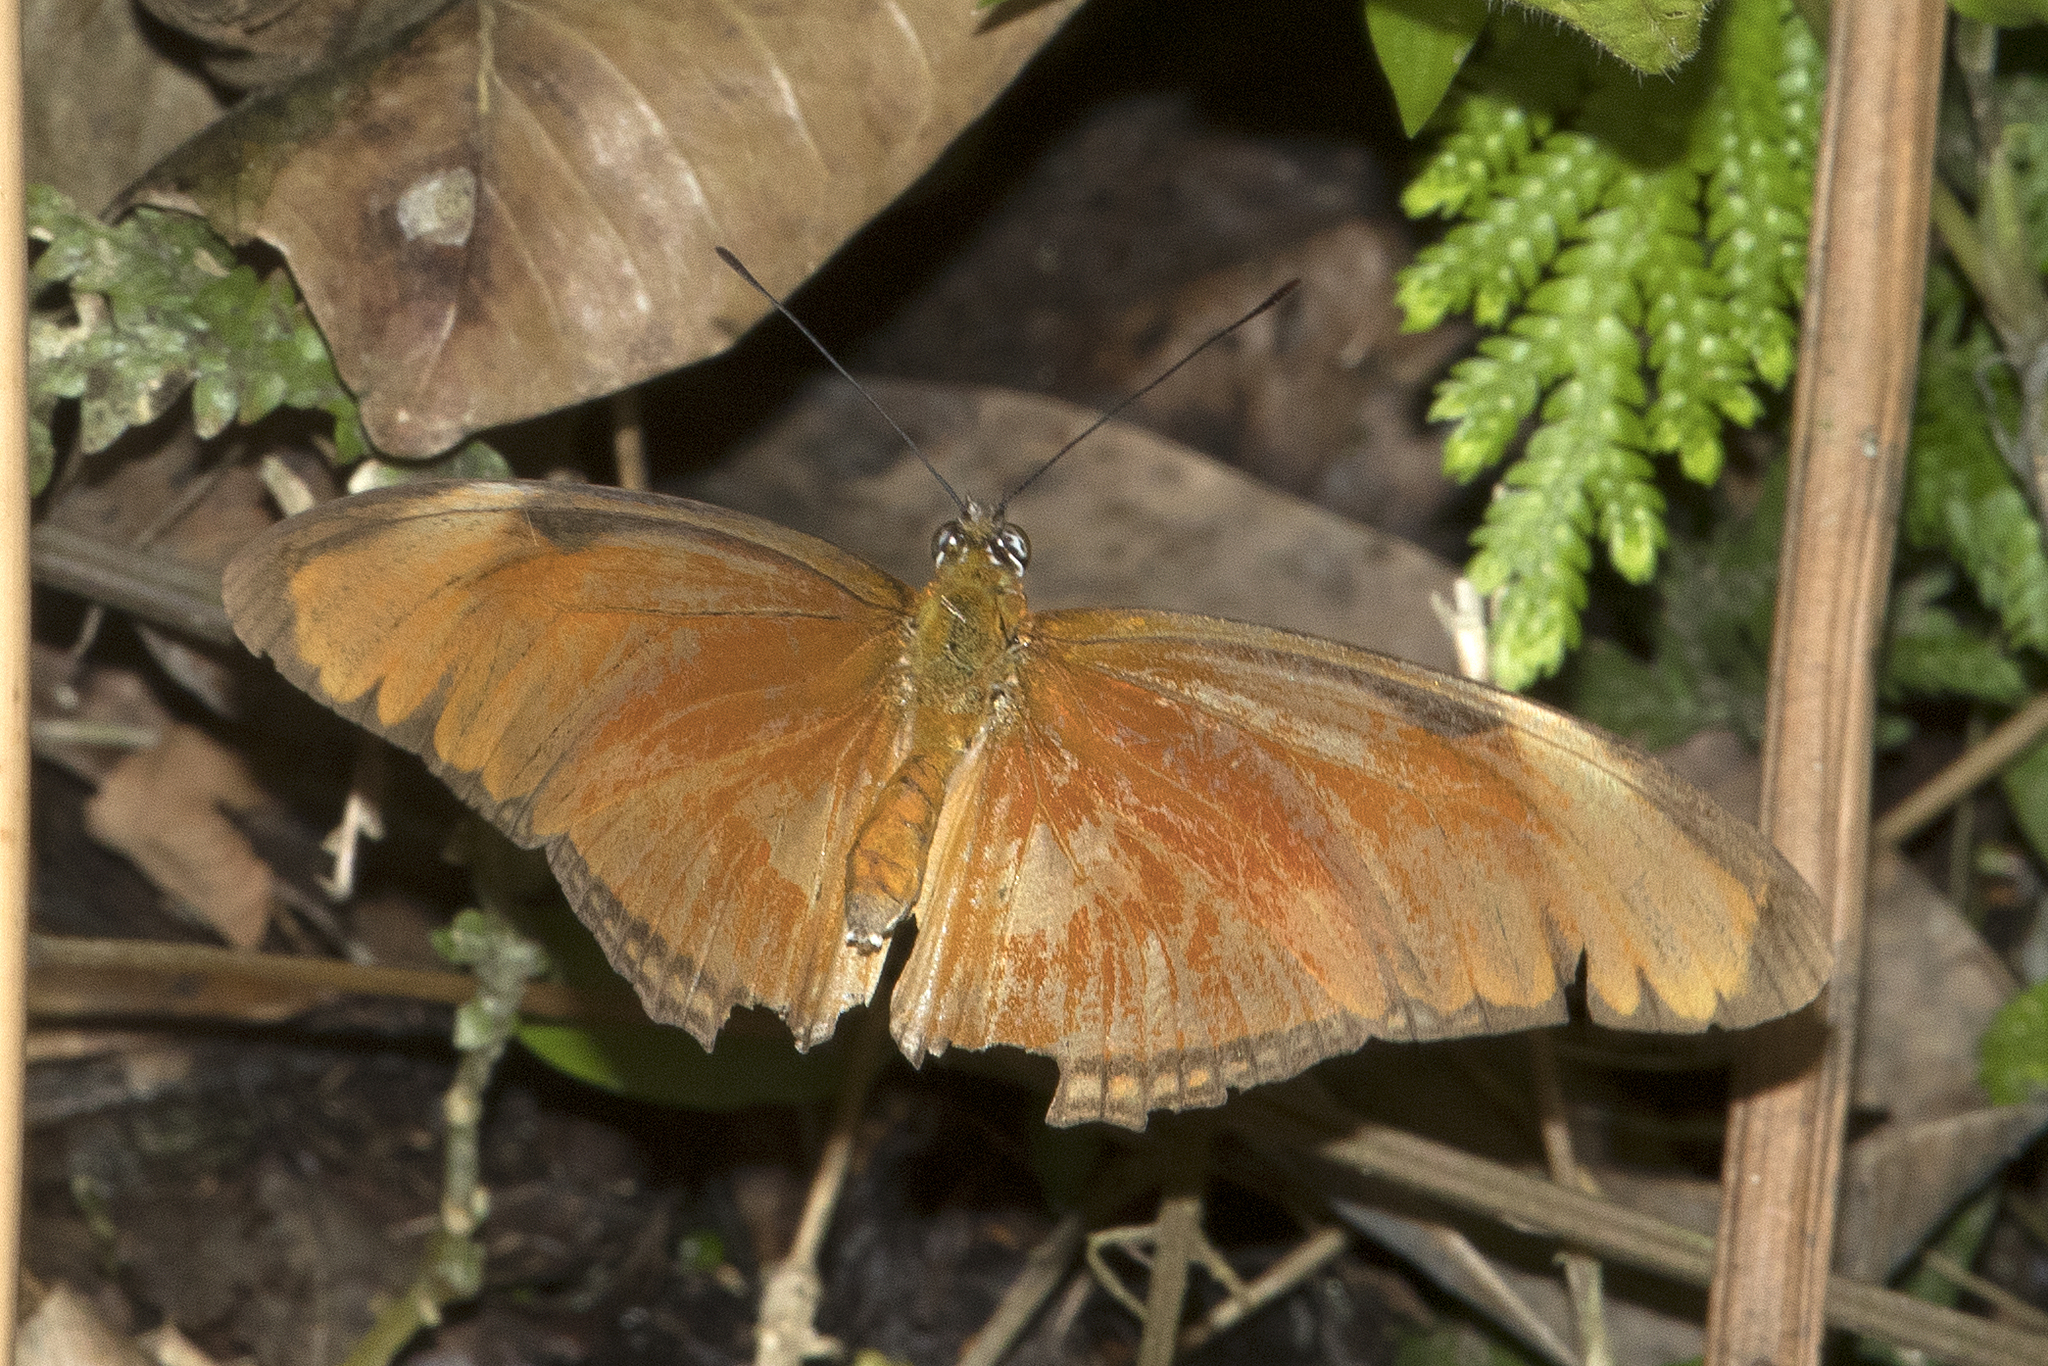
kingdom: Animalia
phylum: Arthropoda
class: Insecta
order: Lepidoptera
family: Nymphalidae
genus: Dryas
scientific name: Dryas iulia
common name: Flambeau
